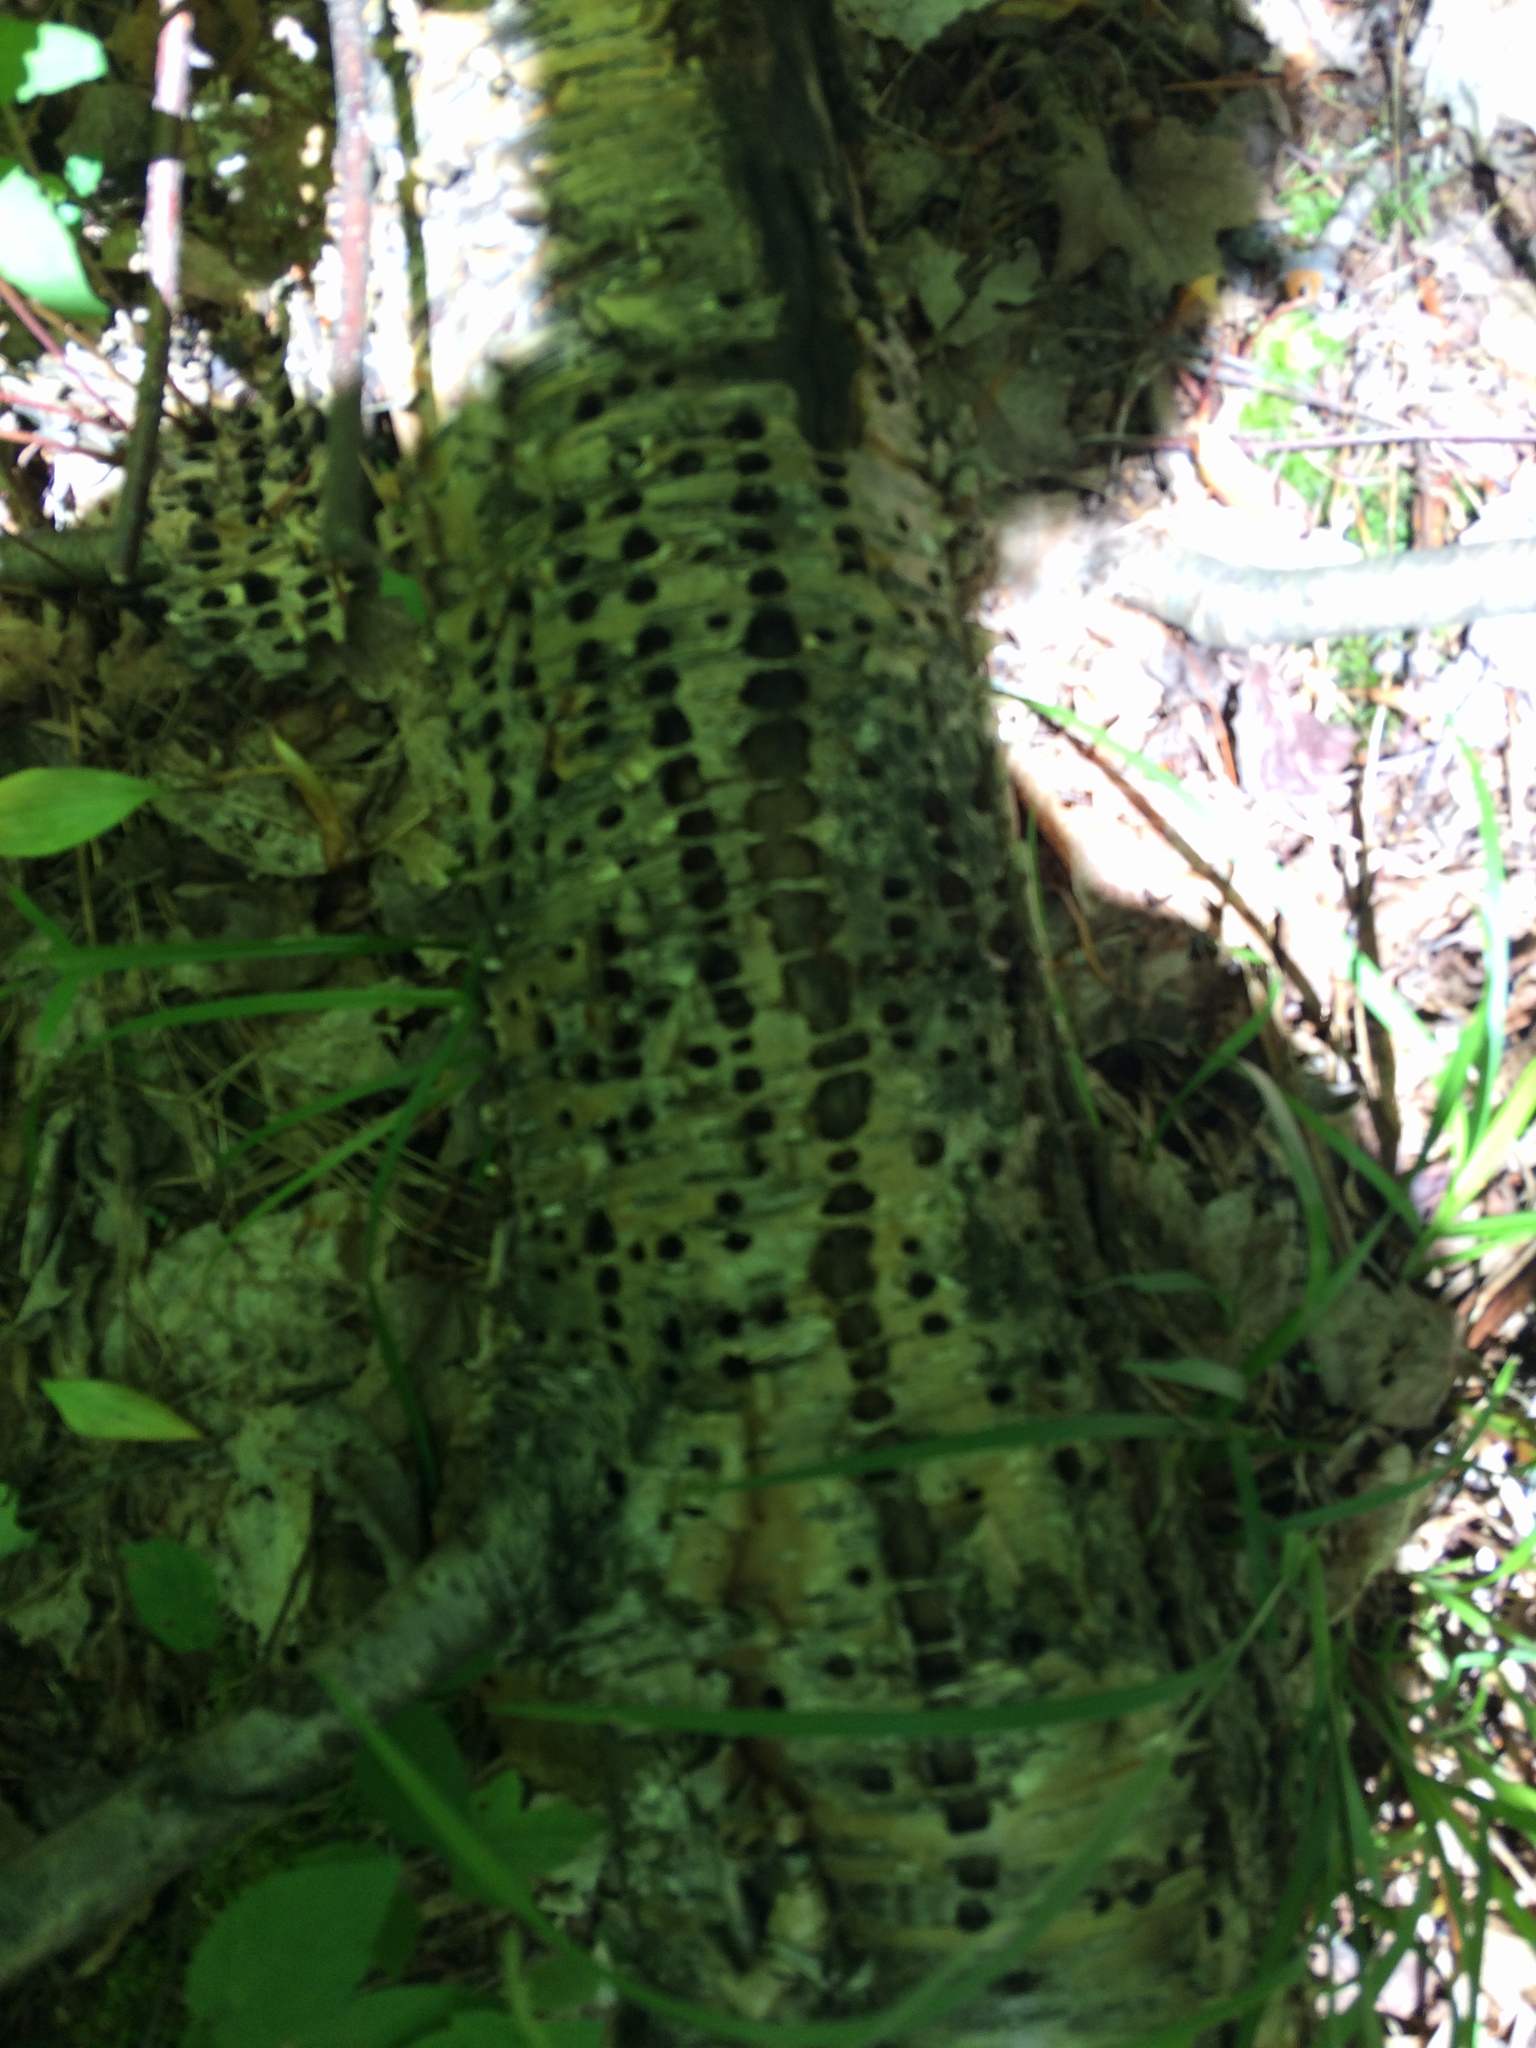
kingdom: Animalia
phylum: Chordata
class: Aves
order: Piciformes
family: Picidae
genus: Sphyrapicus
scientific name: Sphyrapicus varius
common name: Yellow-bellied sapsucker
